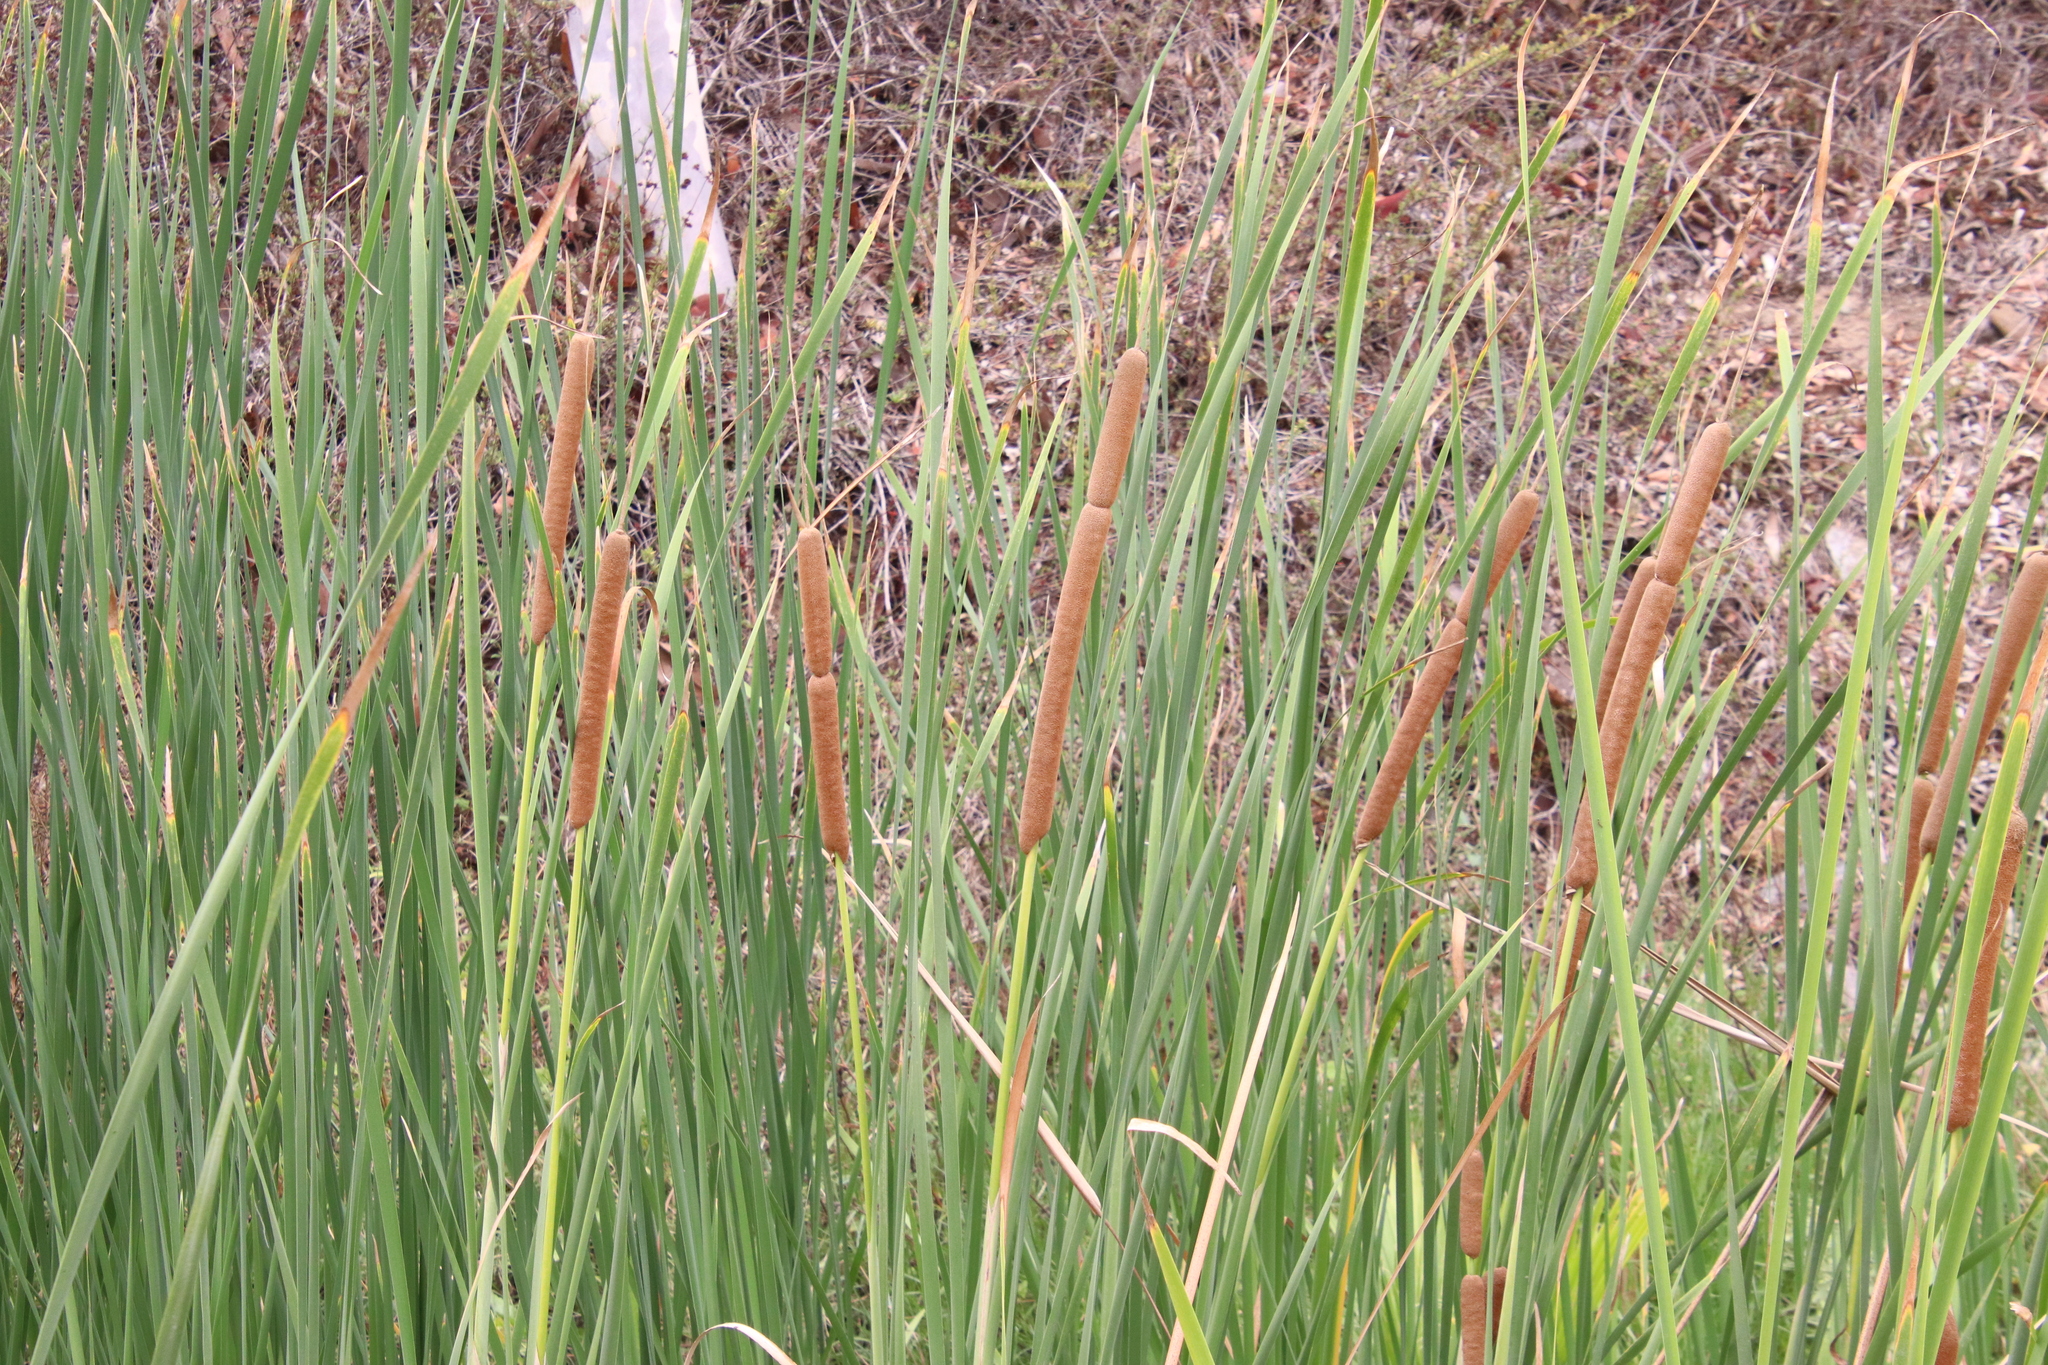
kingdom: Plantae
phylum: Tracheophyta
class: Liliopsida
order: Poales
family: Typhaceae
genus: Typha
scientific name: Typha domingensis
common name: Southern cattail
